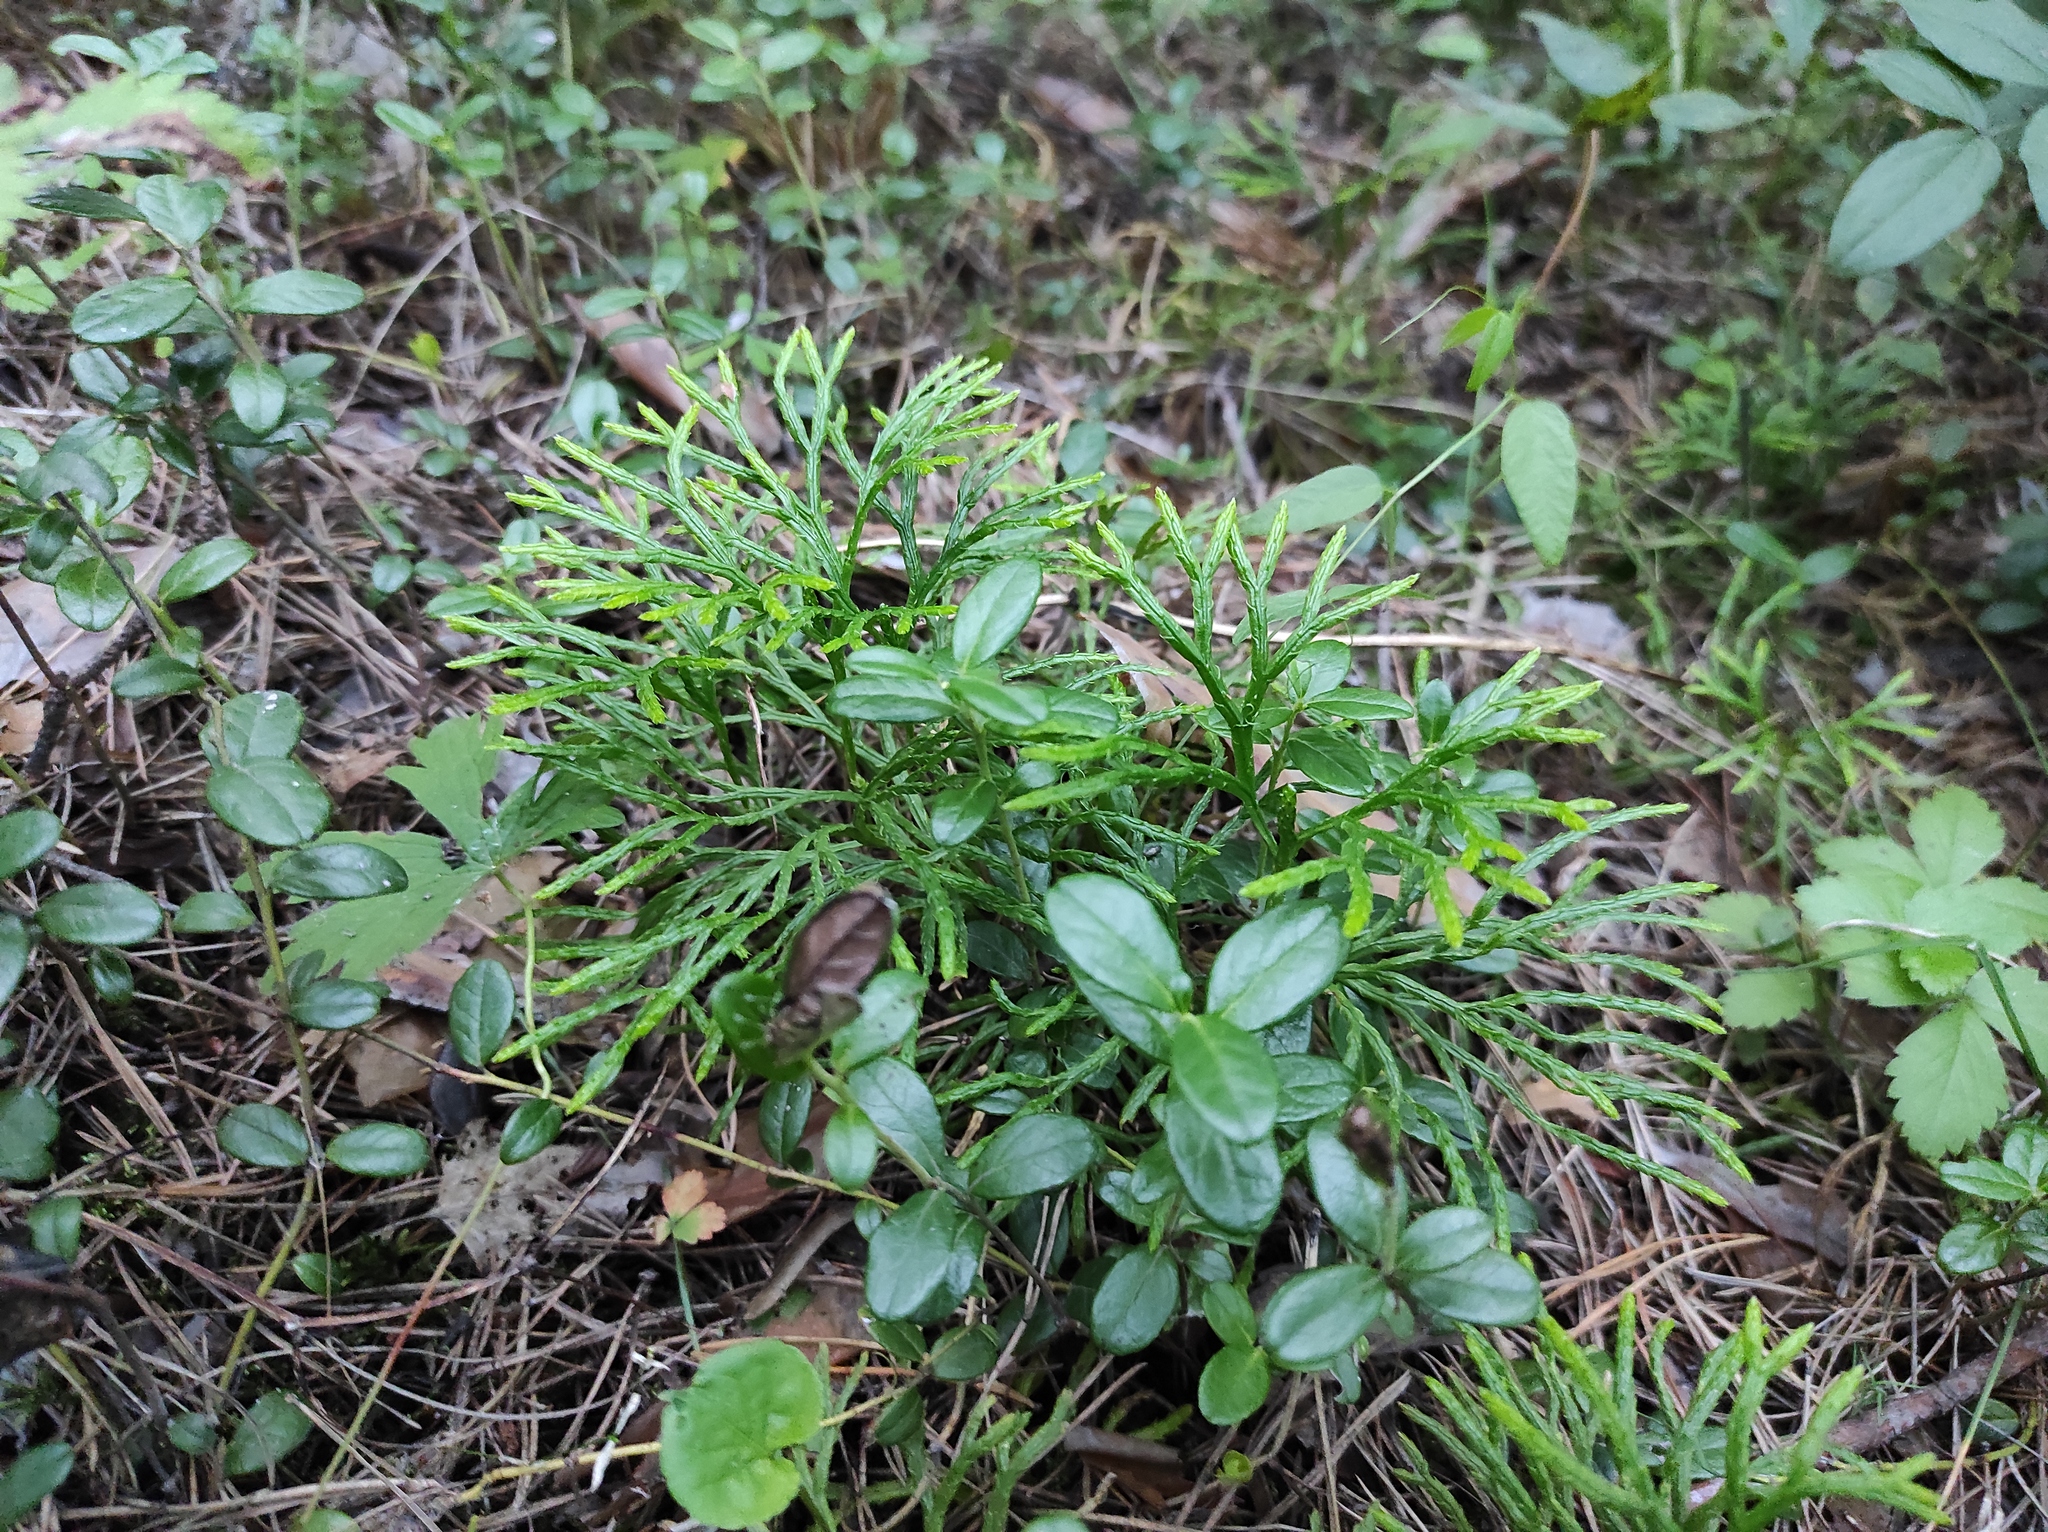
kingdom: Plantae
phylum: Tracheophyta
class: Lycopodiopsida
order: Lycopodiales
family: Lycopodiaceae
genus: Diphasiastrum
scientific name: Diphasiastrum complanatum
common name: Northern running-pine
